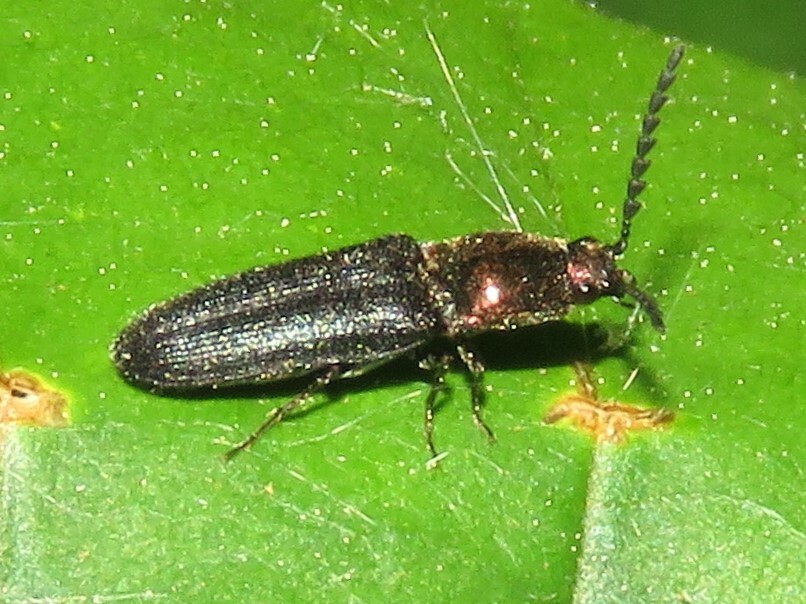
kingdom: Animalia
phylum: Arthropoda
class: Insecta
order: Coleoptera
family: Elateridae
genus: Limonius
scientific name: Limonius aurifer
